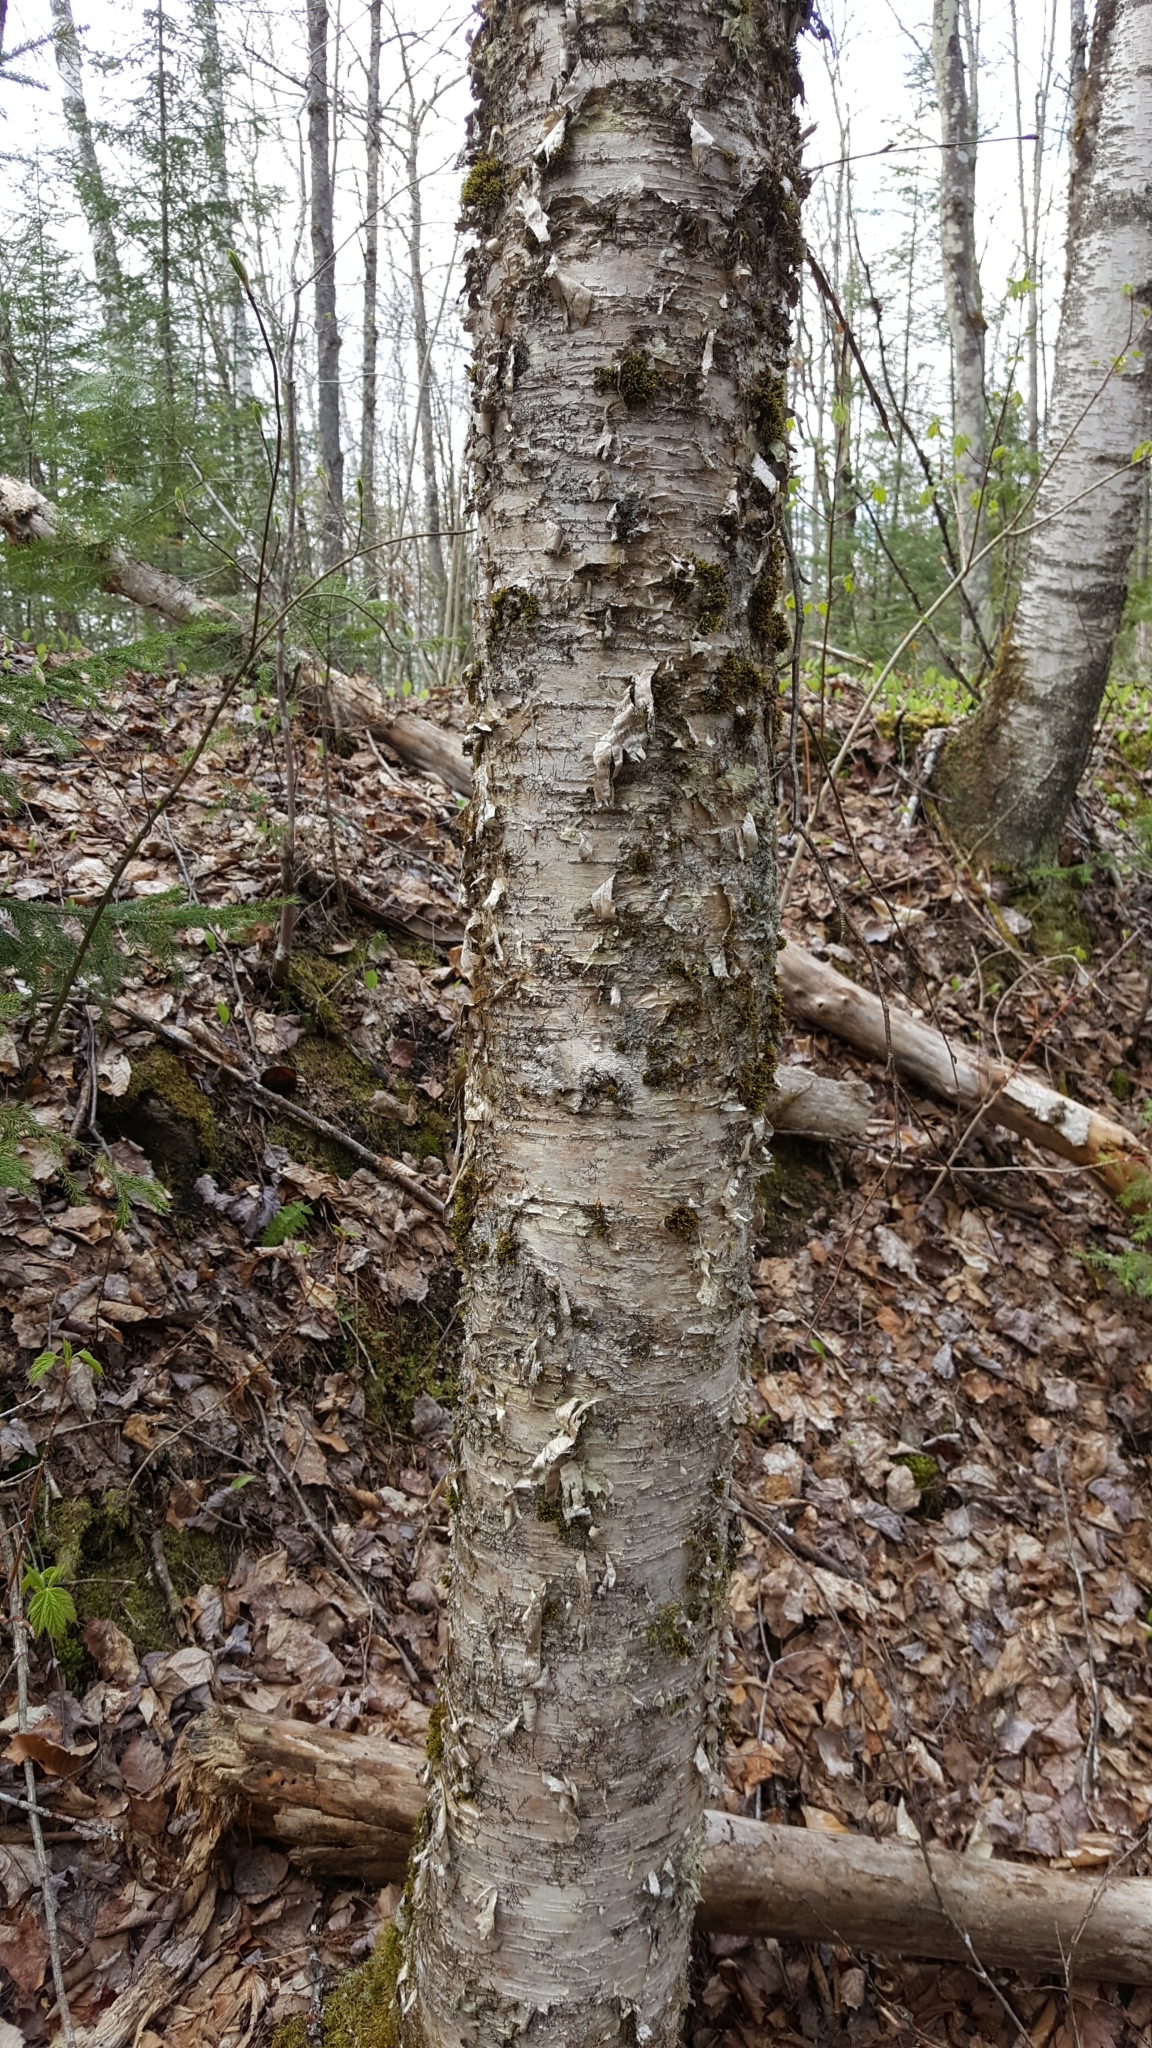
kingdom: Plantae
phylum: Tracheophyta
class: Magnoliopsida
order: Fagales
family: Betulaceae
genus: Betula
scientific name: Betula alleghaniensis
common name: Yellow birch
